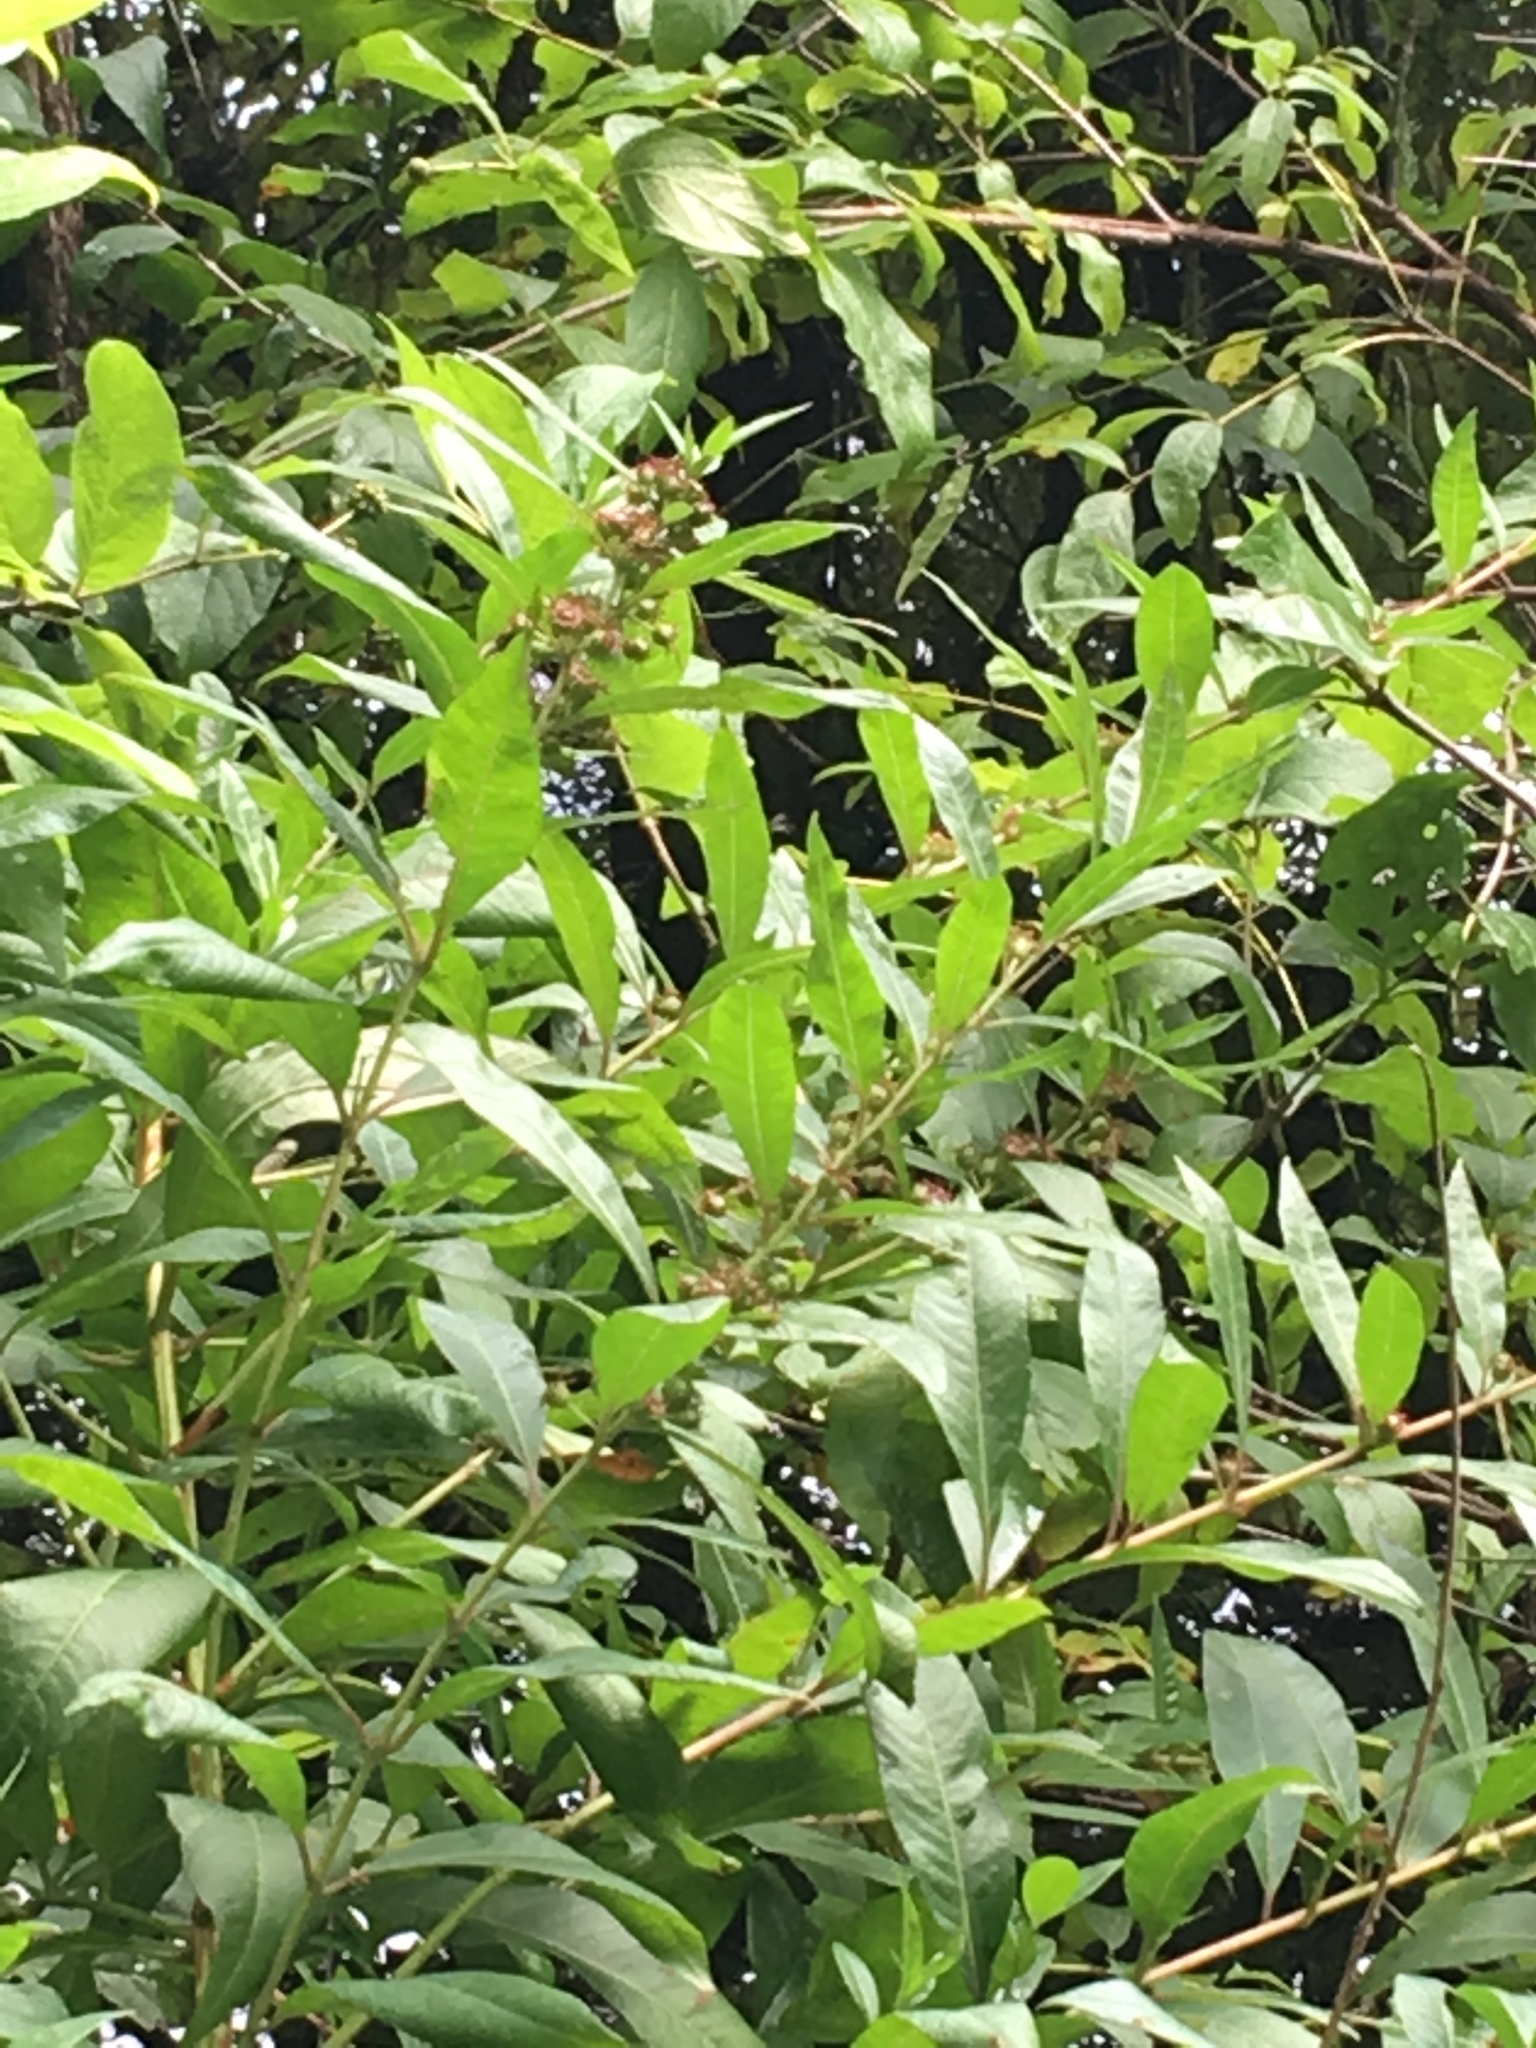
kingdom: Plantae
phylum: Tracheophyta
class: Magnoliopsida
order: Myrtales
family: Lythraceae
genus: Decodon
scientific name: Decodon verticillatus
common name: Hairy swamp loosestrife
